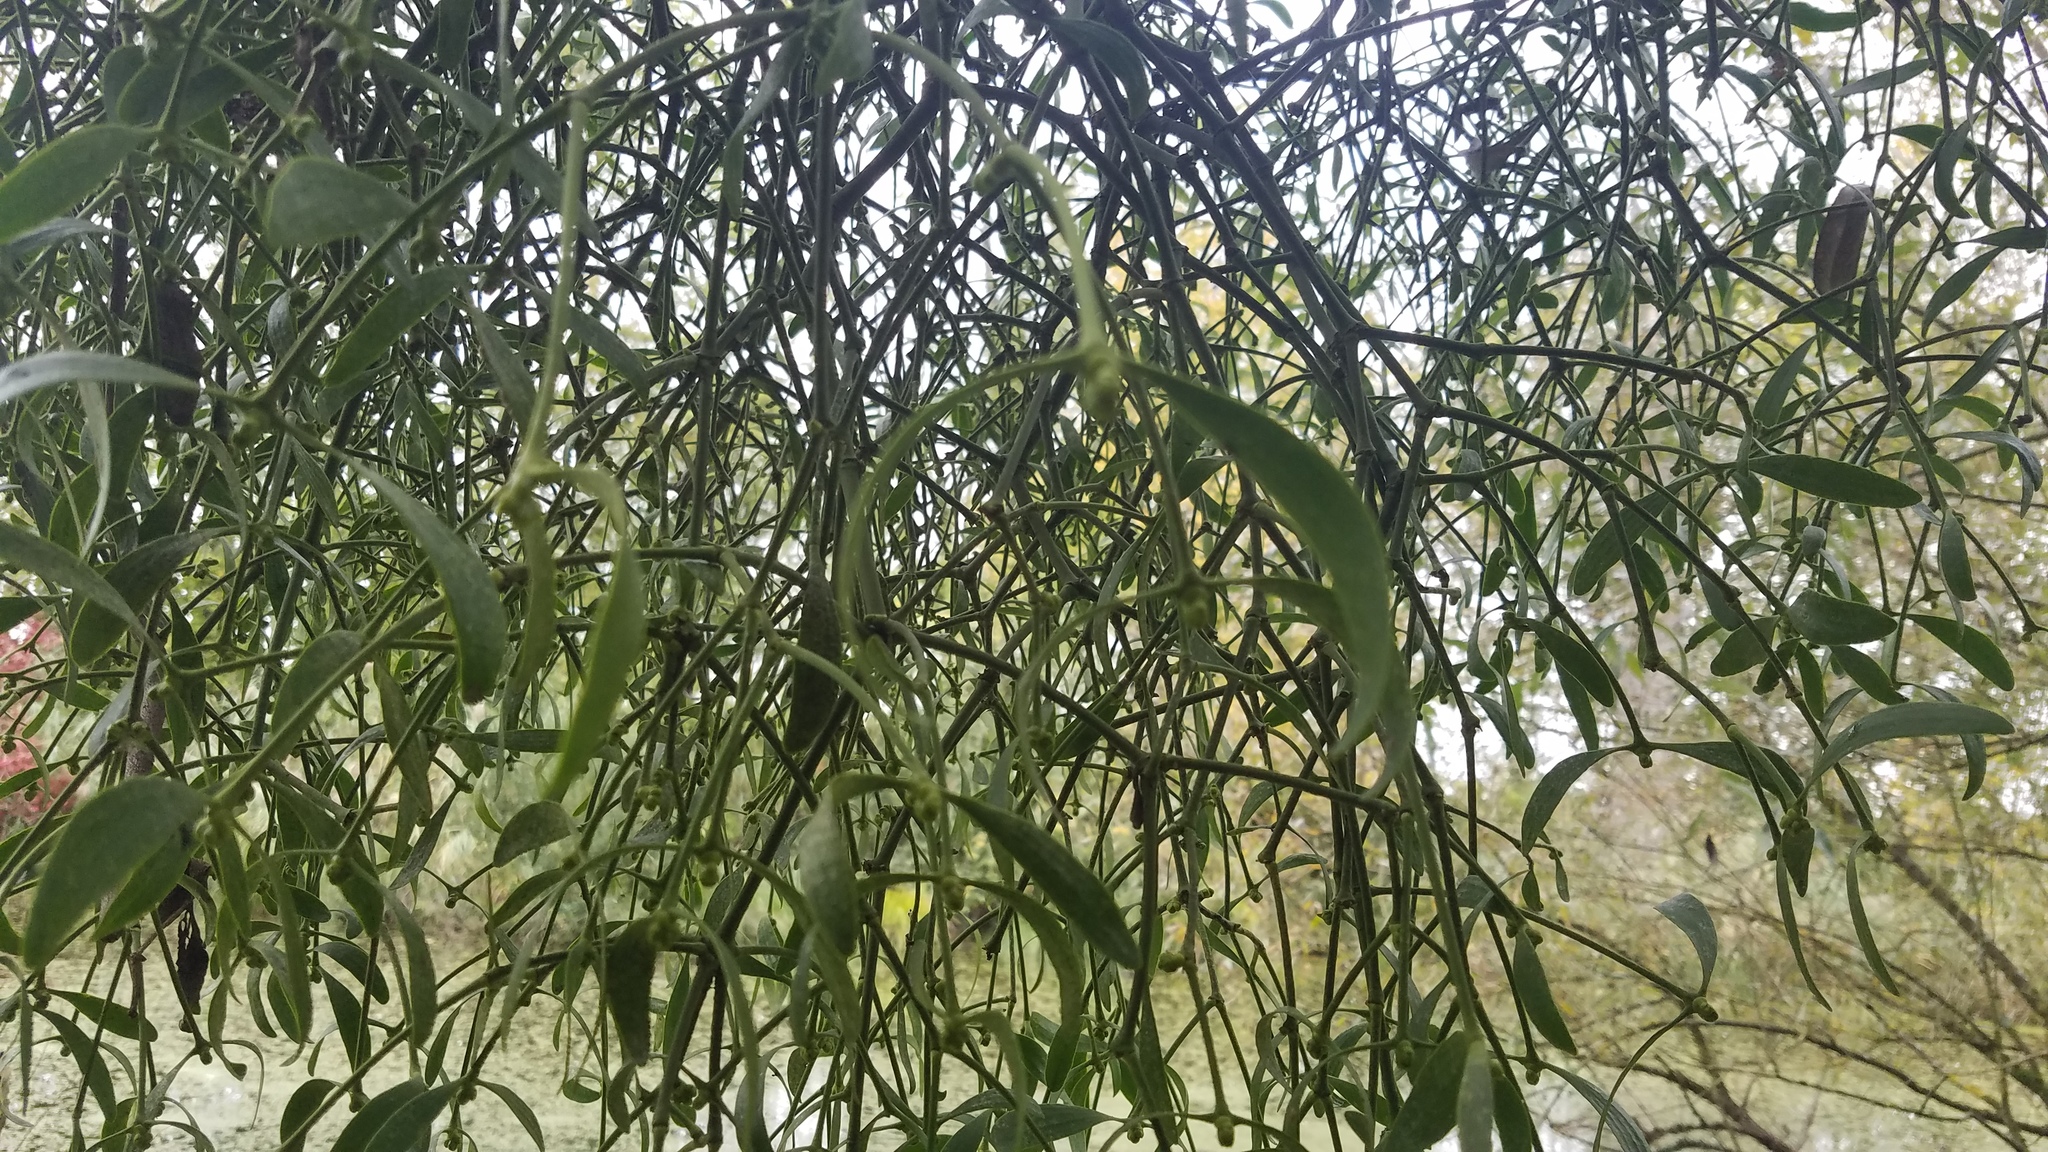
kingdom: Plantae
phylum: Tracheophyta
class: Magnoliopsida
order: Santalales
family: Viscaceae
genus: Viscum
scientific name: Viscum album
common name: Mistletoe
